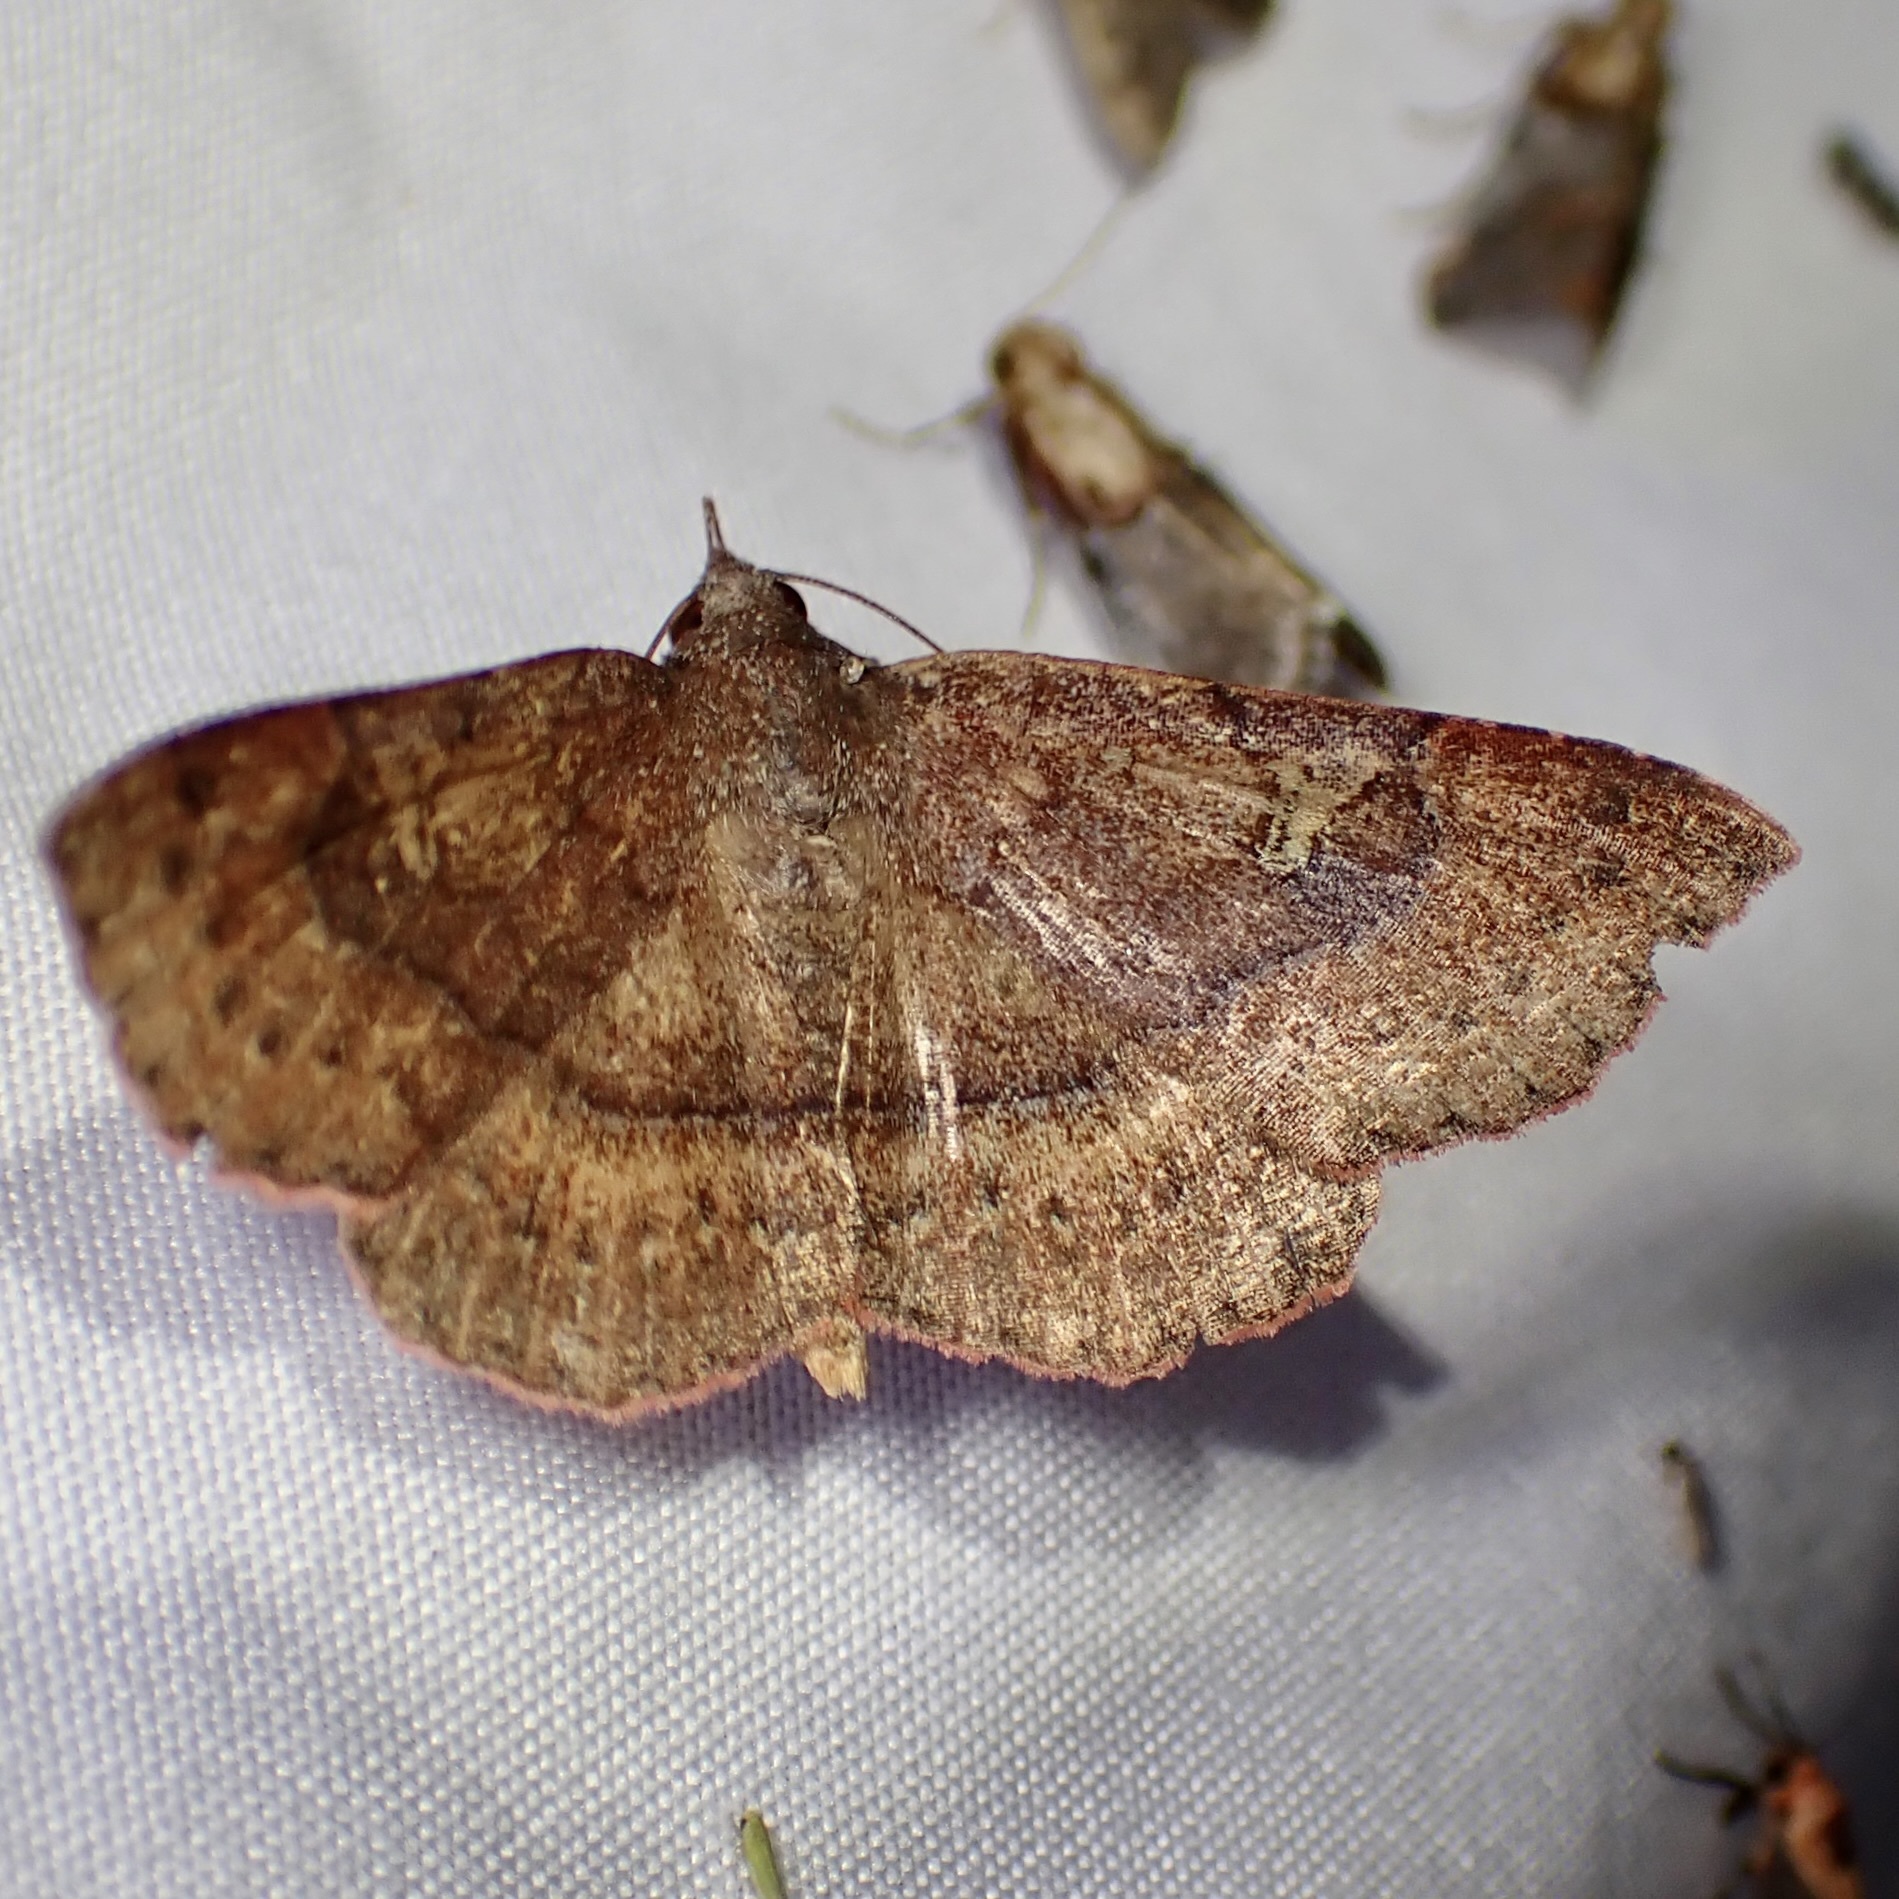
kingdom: Animalia
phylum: Arthropoda
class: Insecta
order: Lepidoptera
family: Erebidae
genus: Azeta
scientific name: Azeta schausi
